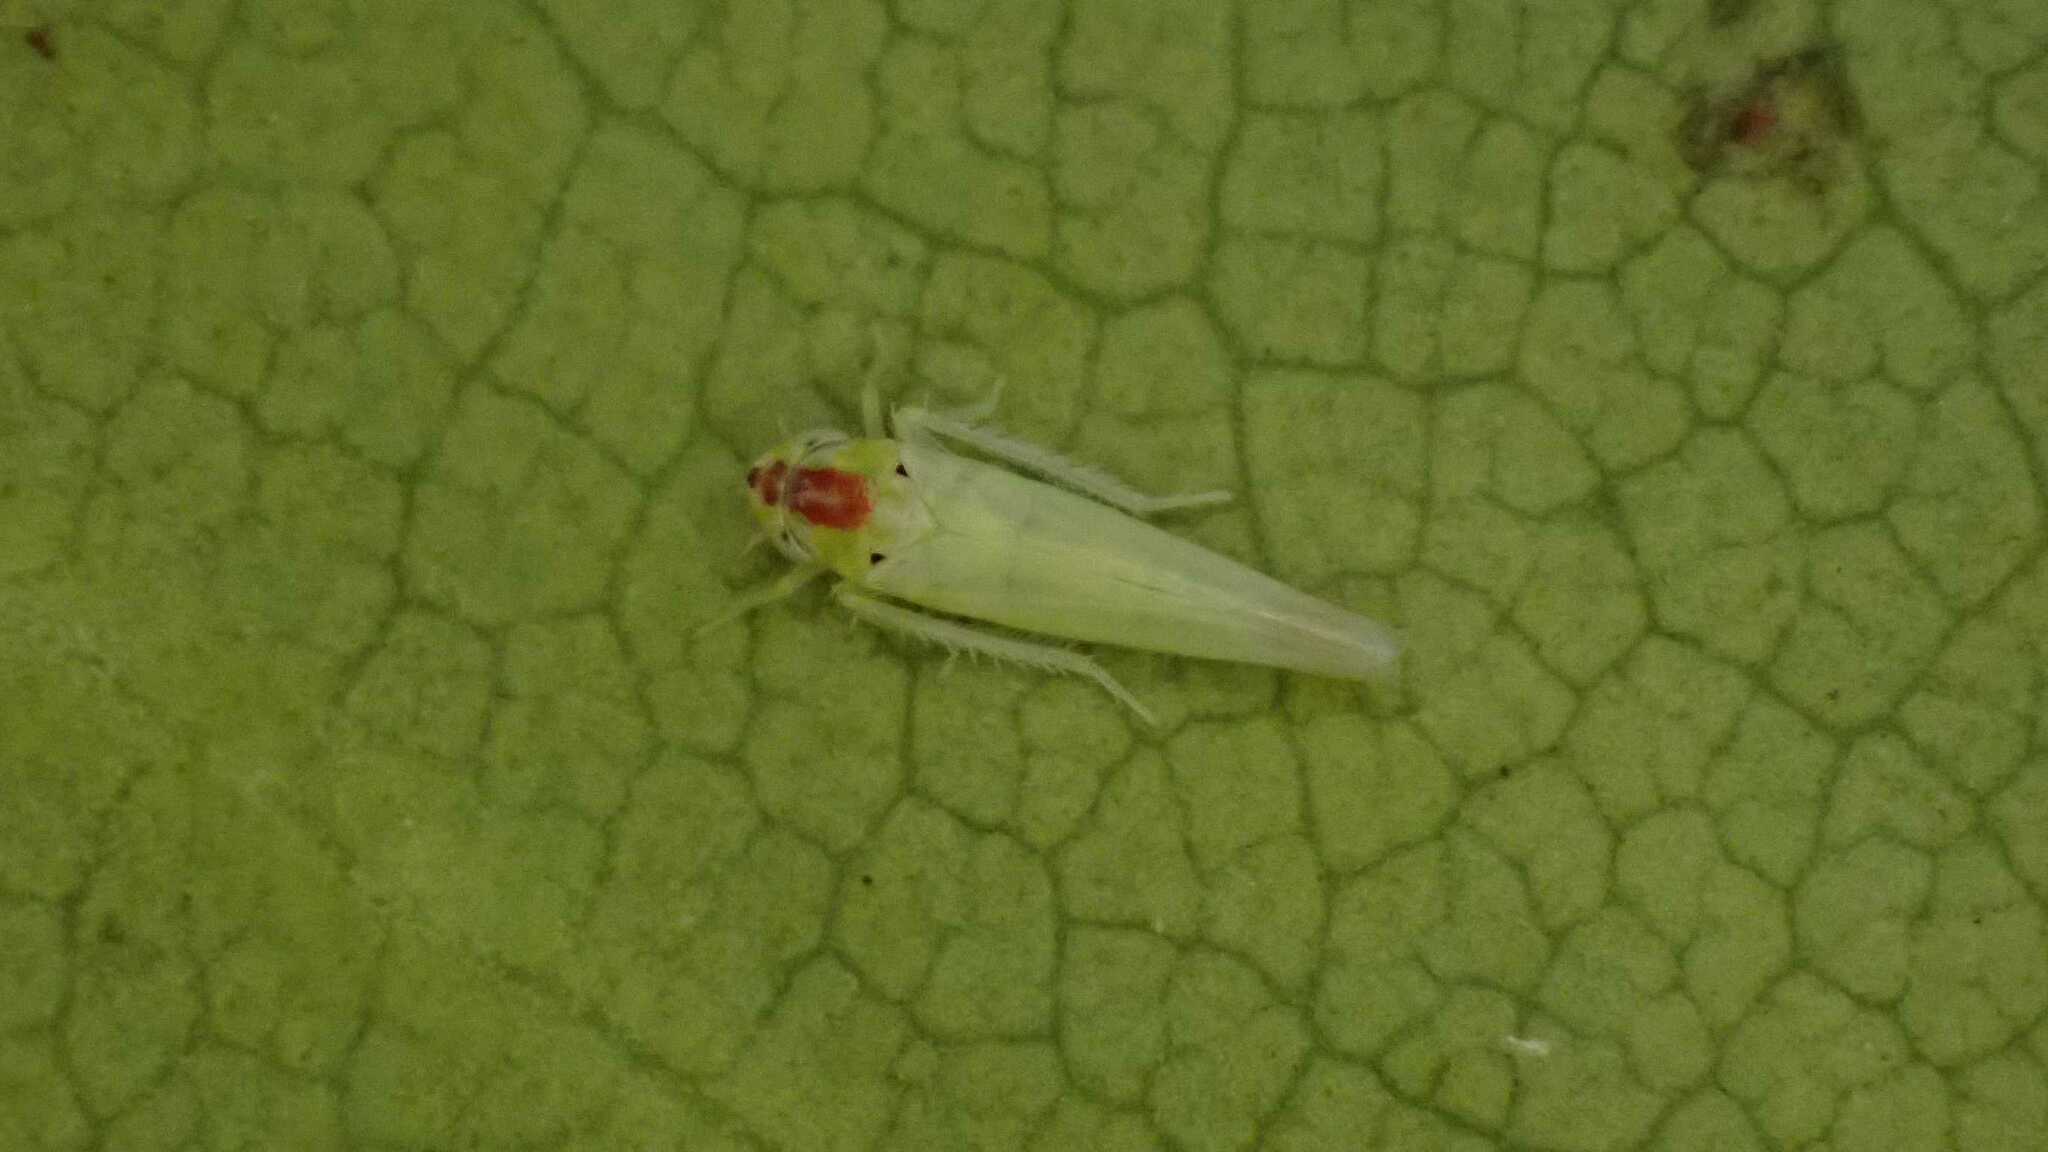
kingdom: Animalia
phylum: Arthropoda
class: Insecta
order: Hemiptera
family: Cicadellidae
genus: Zygina
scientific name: Zygina nivea
